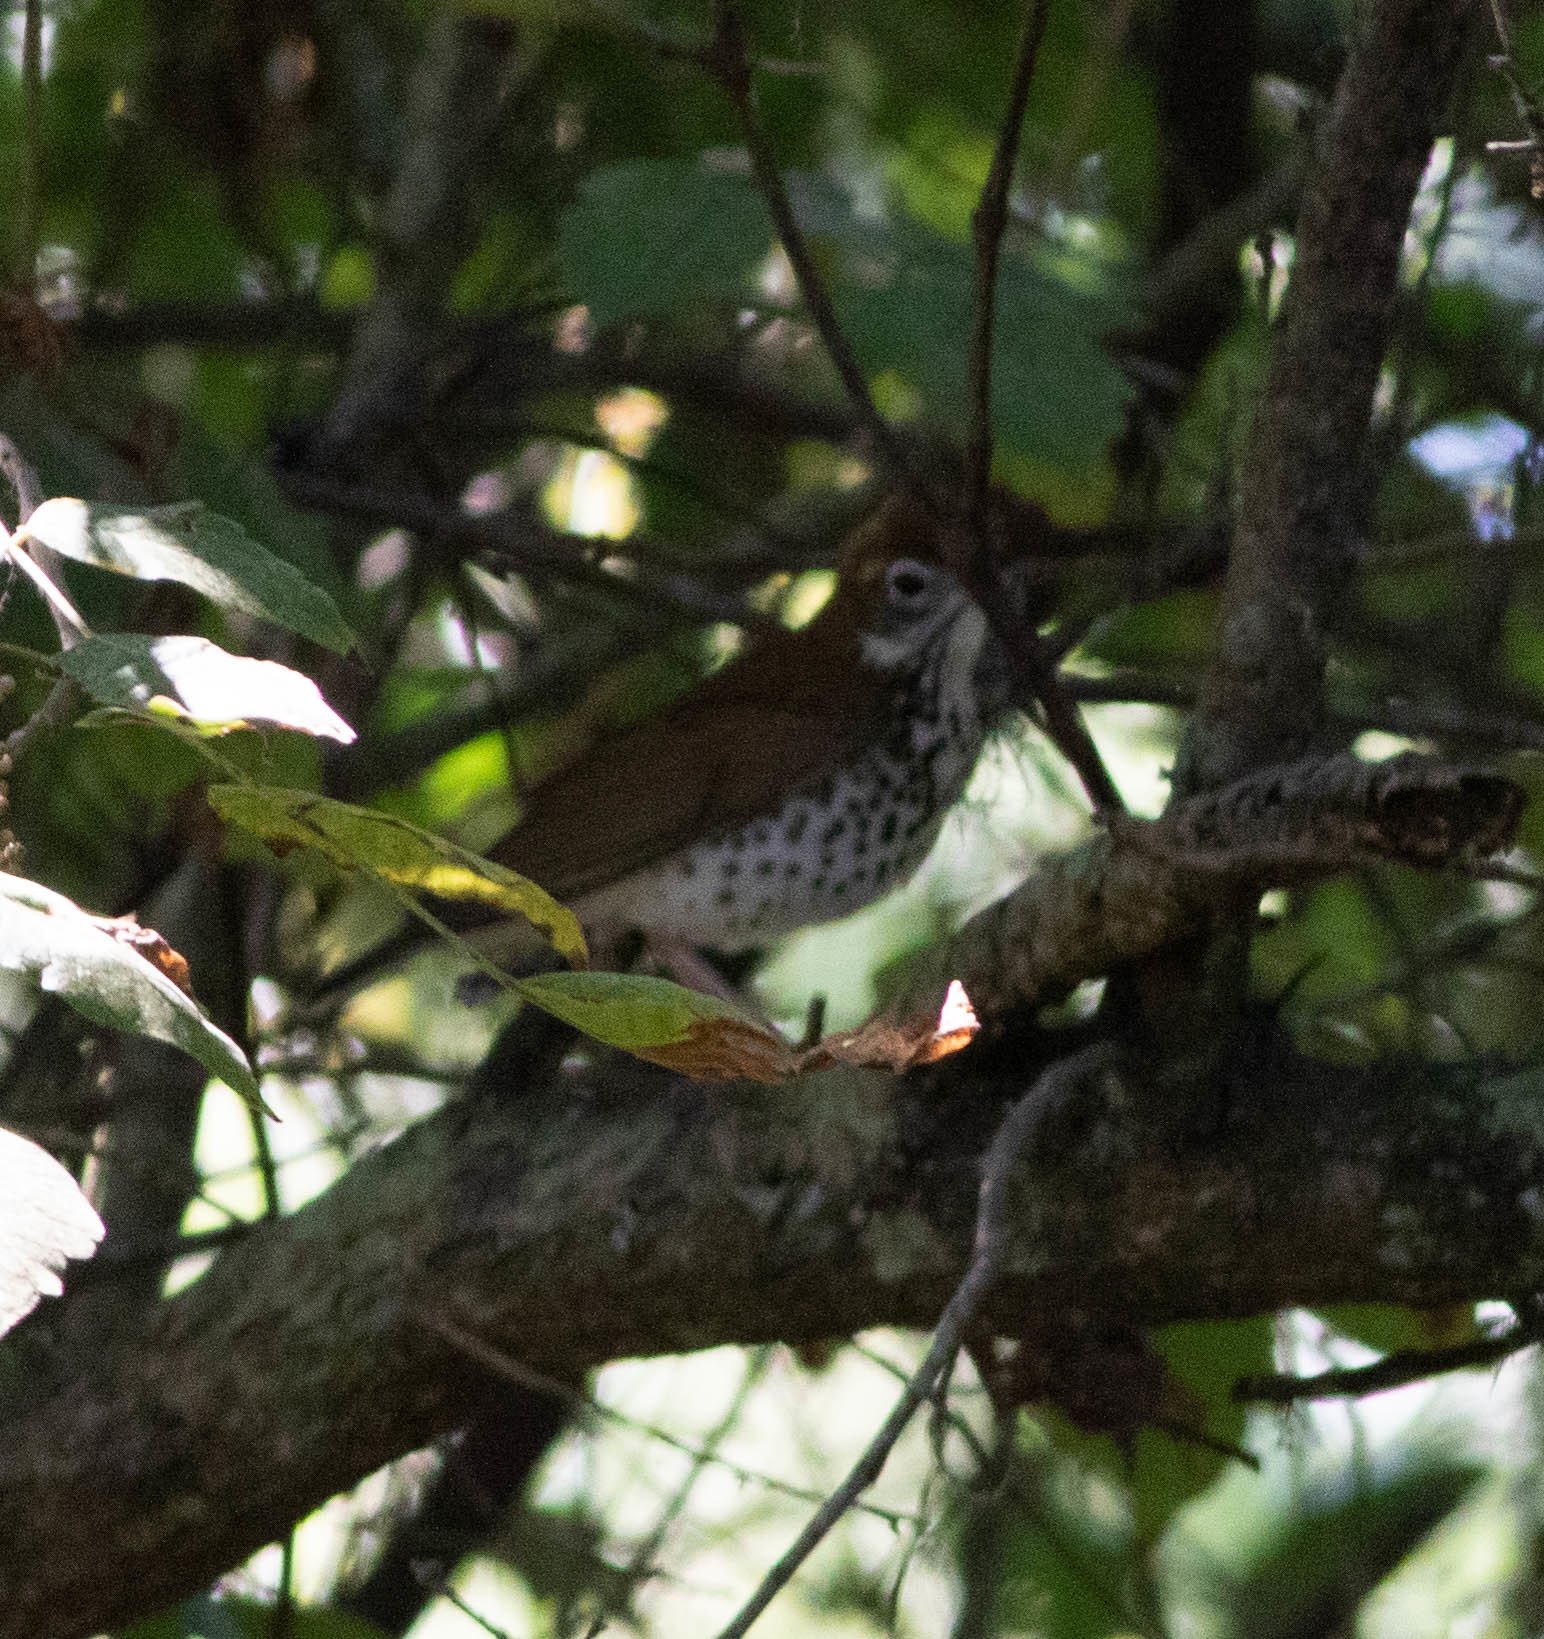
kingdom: Animalia
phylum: Chordata
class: Aves
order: Passeriformes
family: Turdidae
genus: Hylocichla
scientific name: Hylocichla mustelina
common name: Wood thrush
